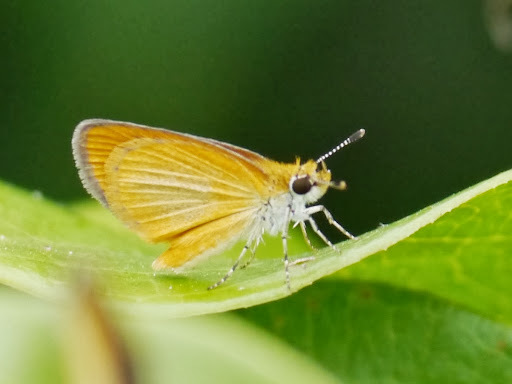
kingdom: Animalia
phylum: Arthropoda
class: Insecta
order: Lepidoptera
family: Hesperiidae
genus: Ancyloxypha
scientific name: Ancyloxypha numitor
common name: Least skipper
